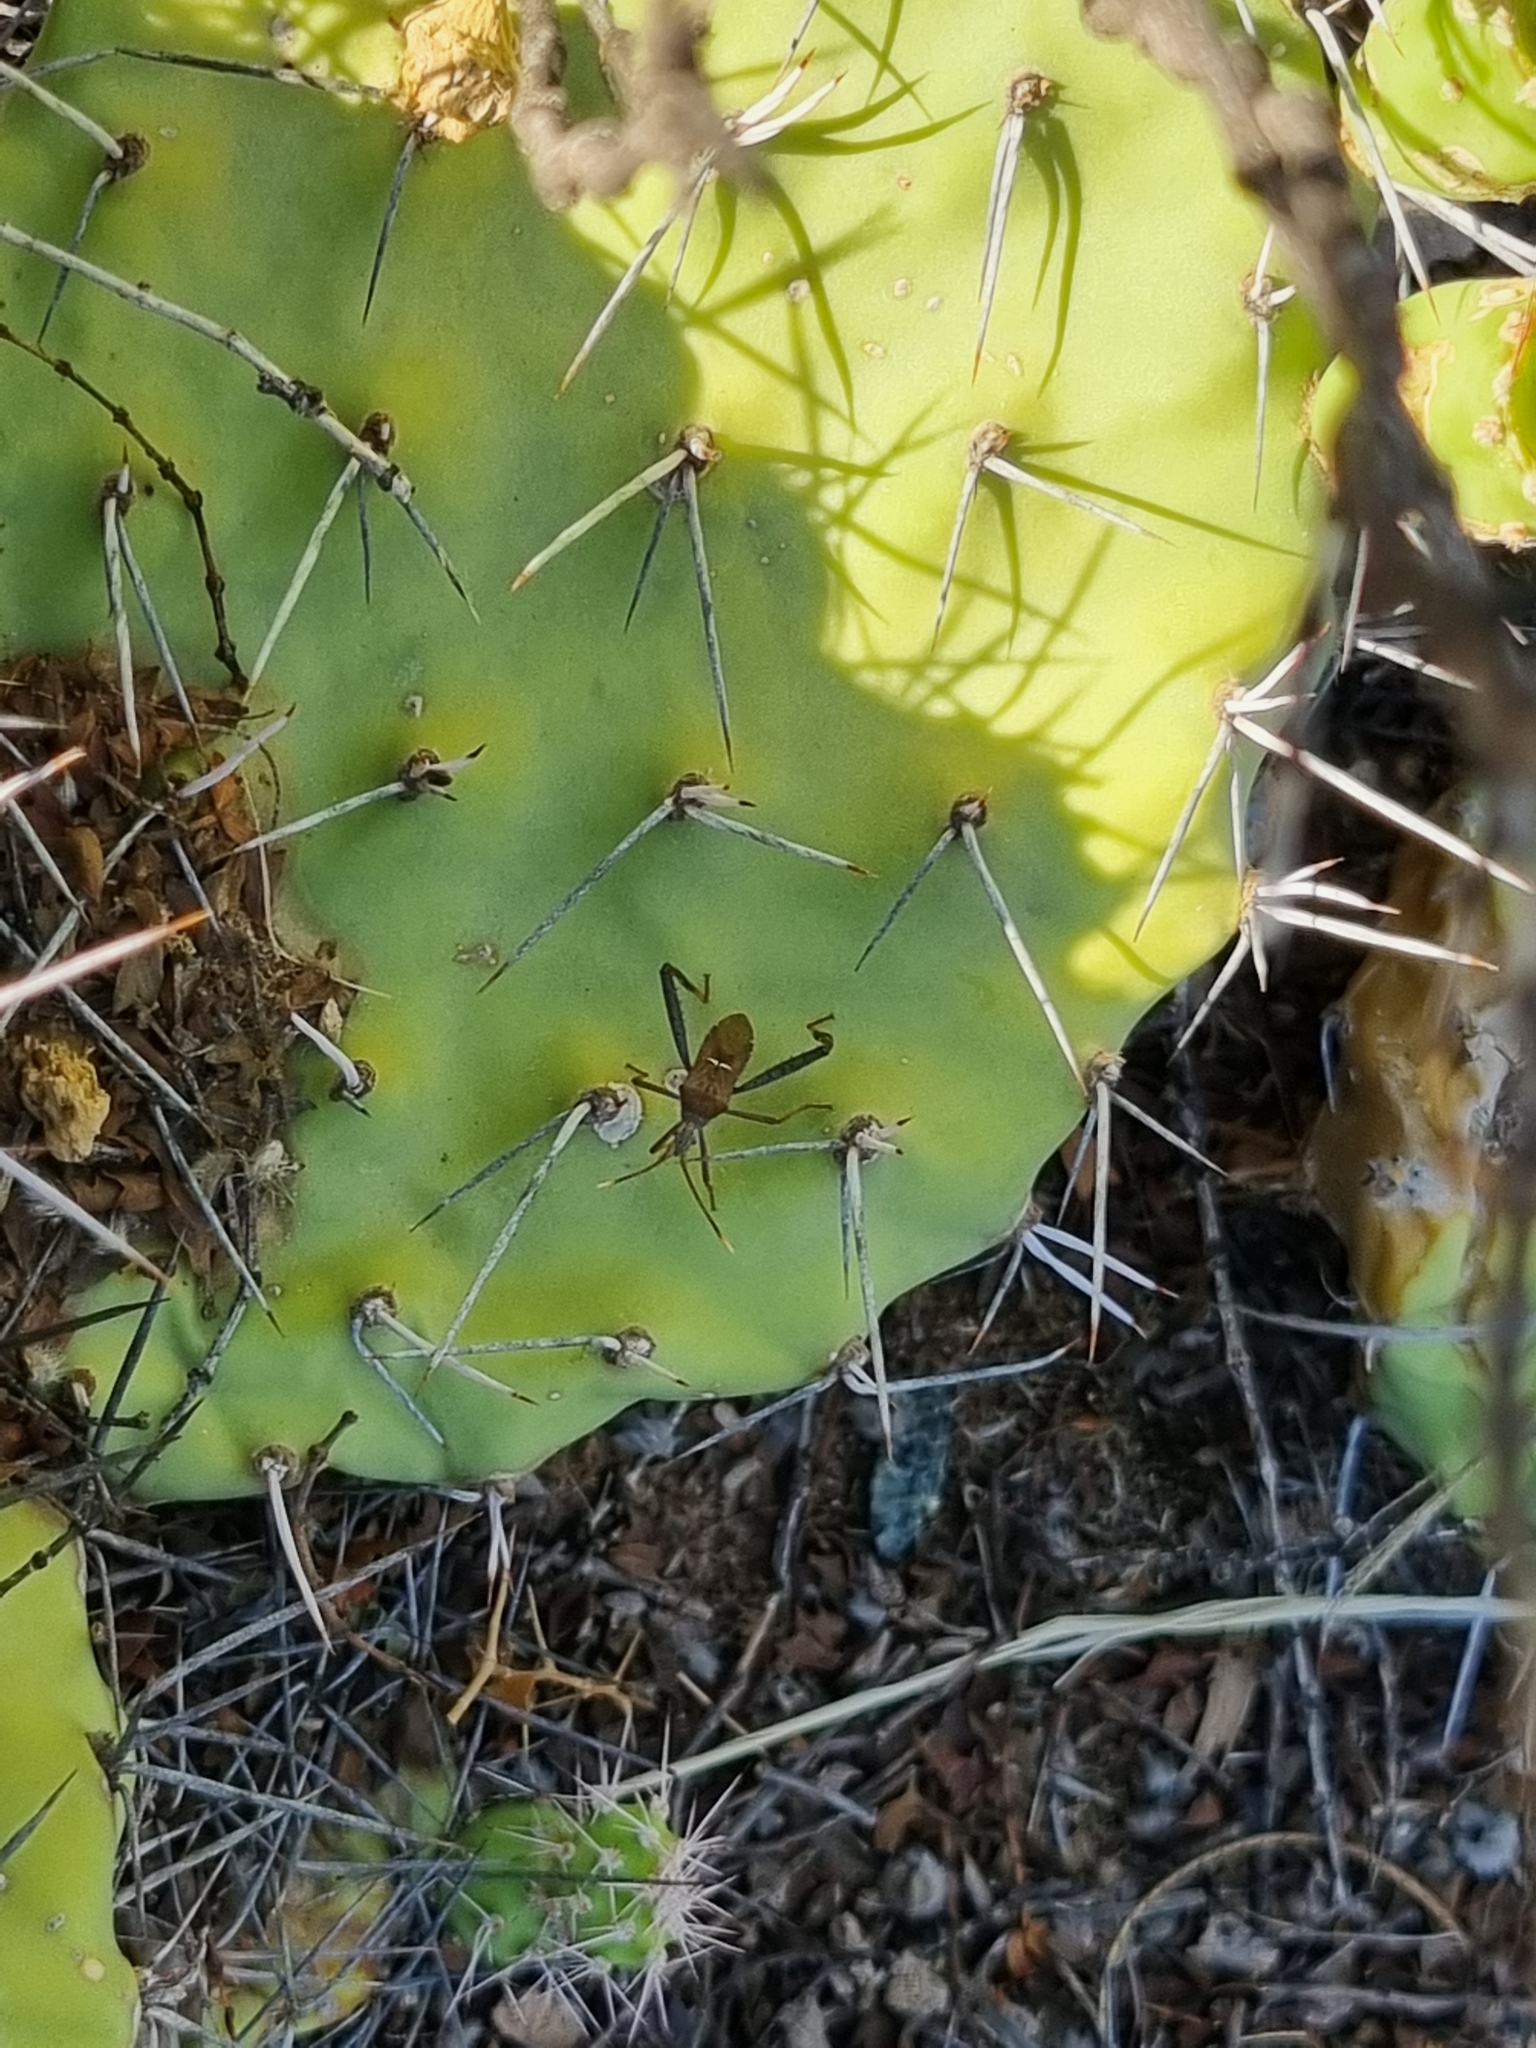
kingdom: Animalia
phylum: Arthropoda
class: Insecta
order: Hemiptera
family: Coreidae
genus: Leptoglossus
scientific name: Leptoglossus crassicornis
